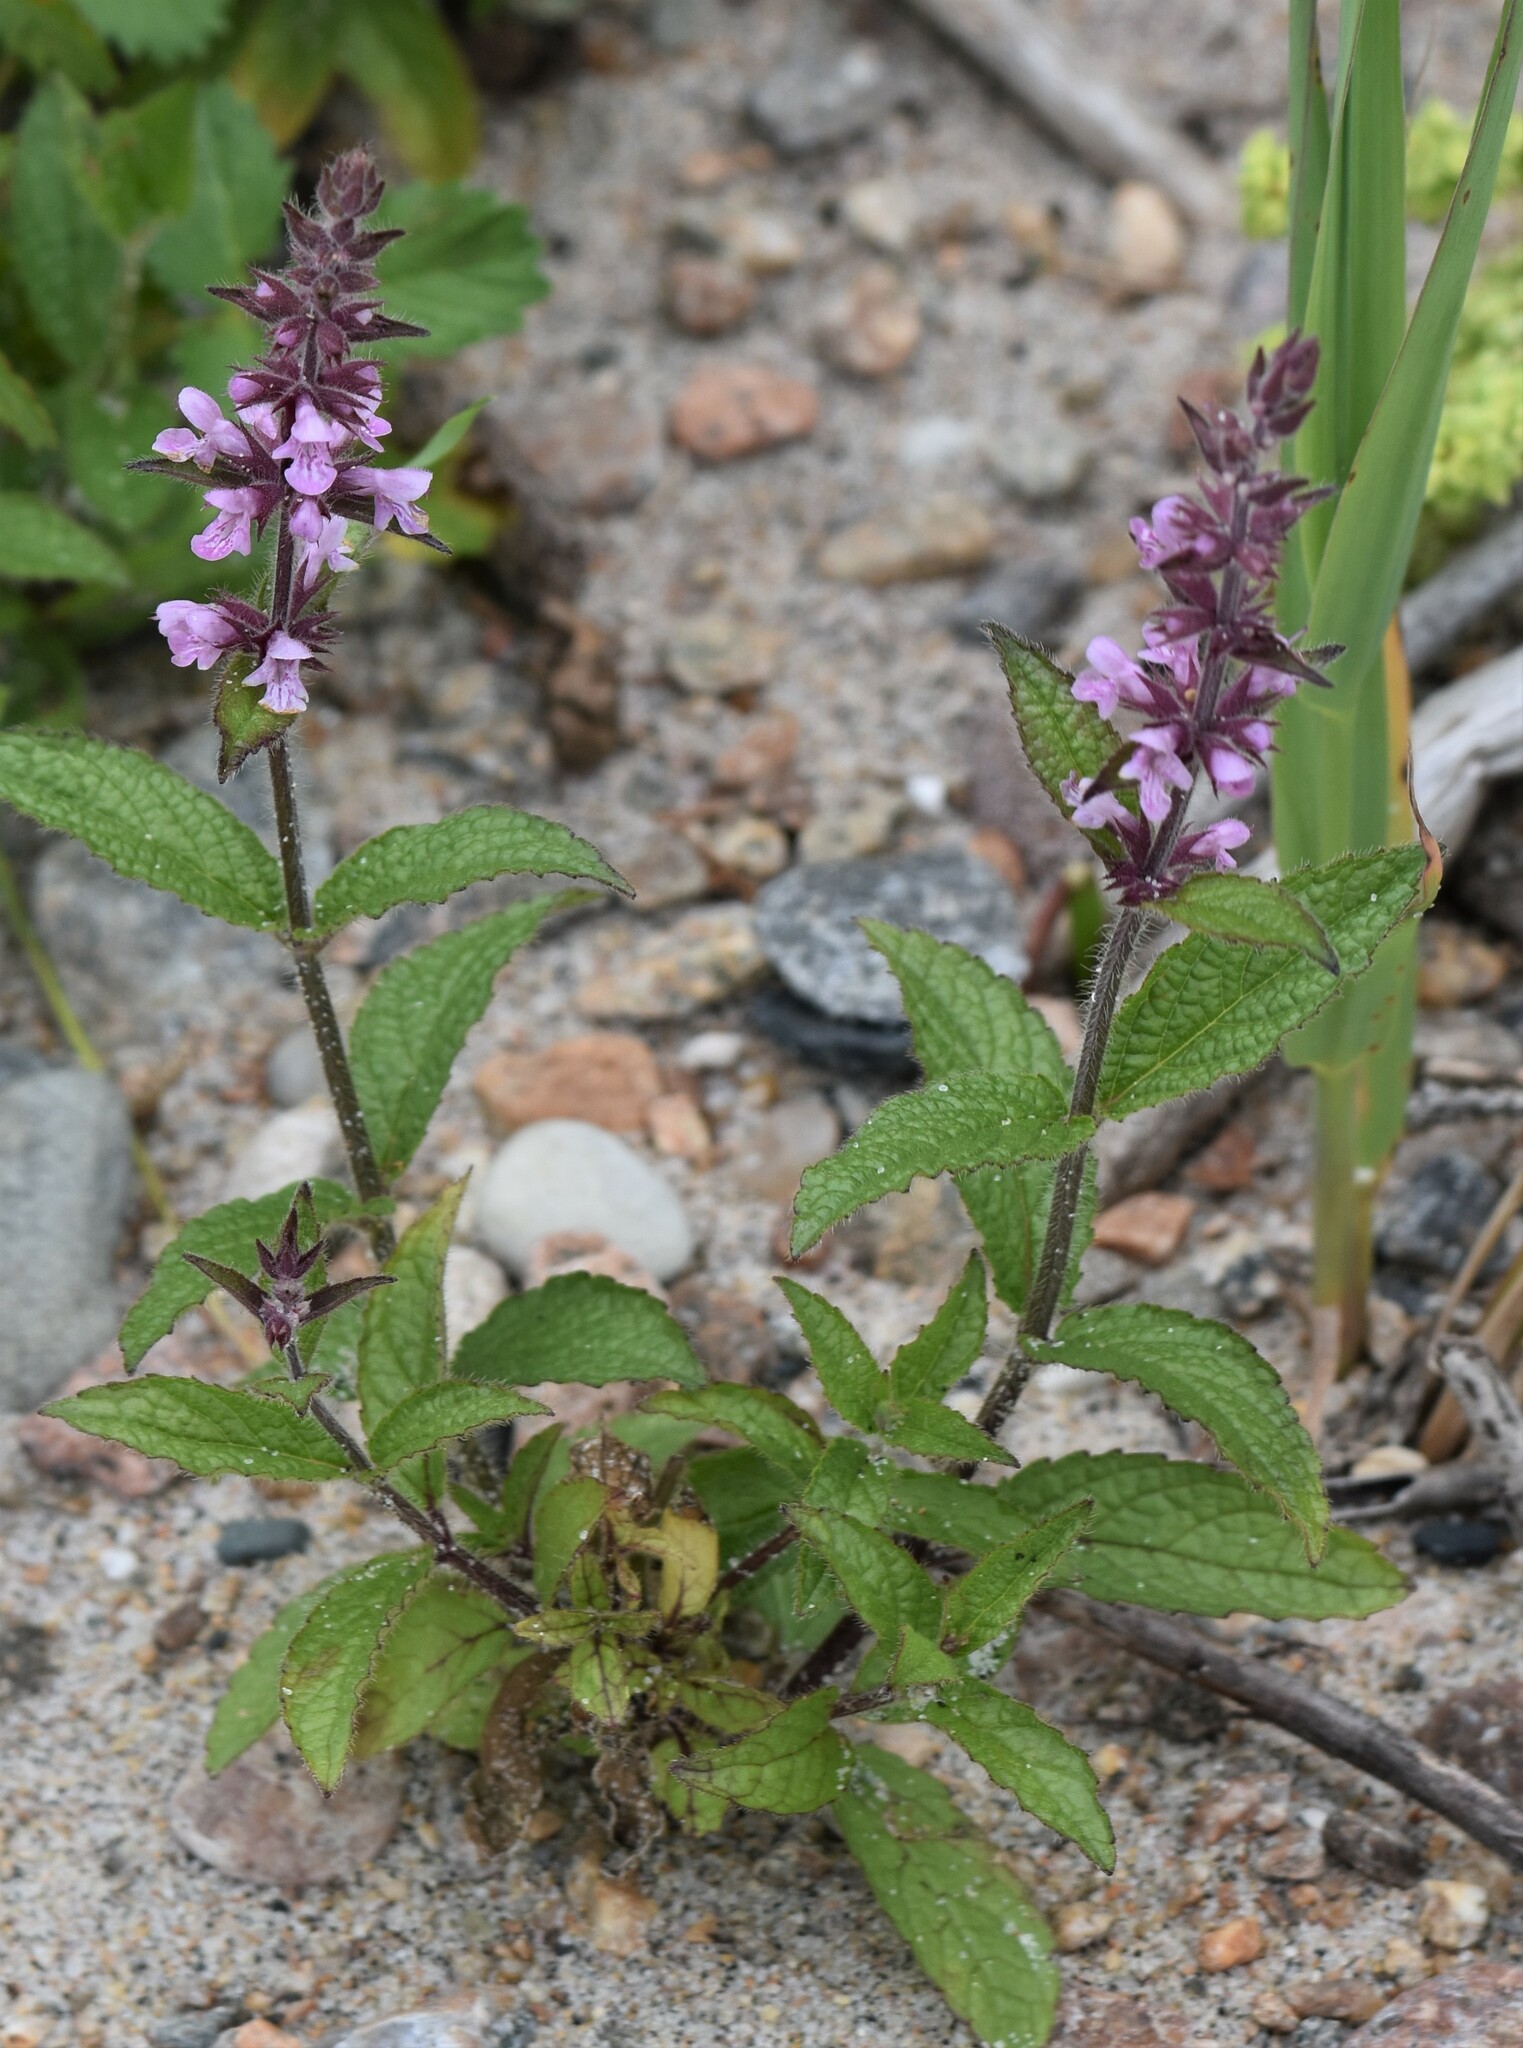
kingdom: Plantae
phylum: Tracheophyta
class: Magnoliopsida
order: Lamiales
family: Lamiaceae
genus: Stachys
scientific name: Stachys pilosa
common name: Hairy hedge-nettle
